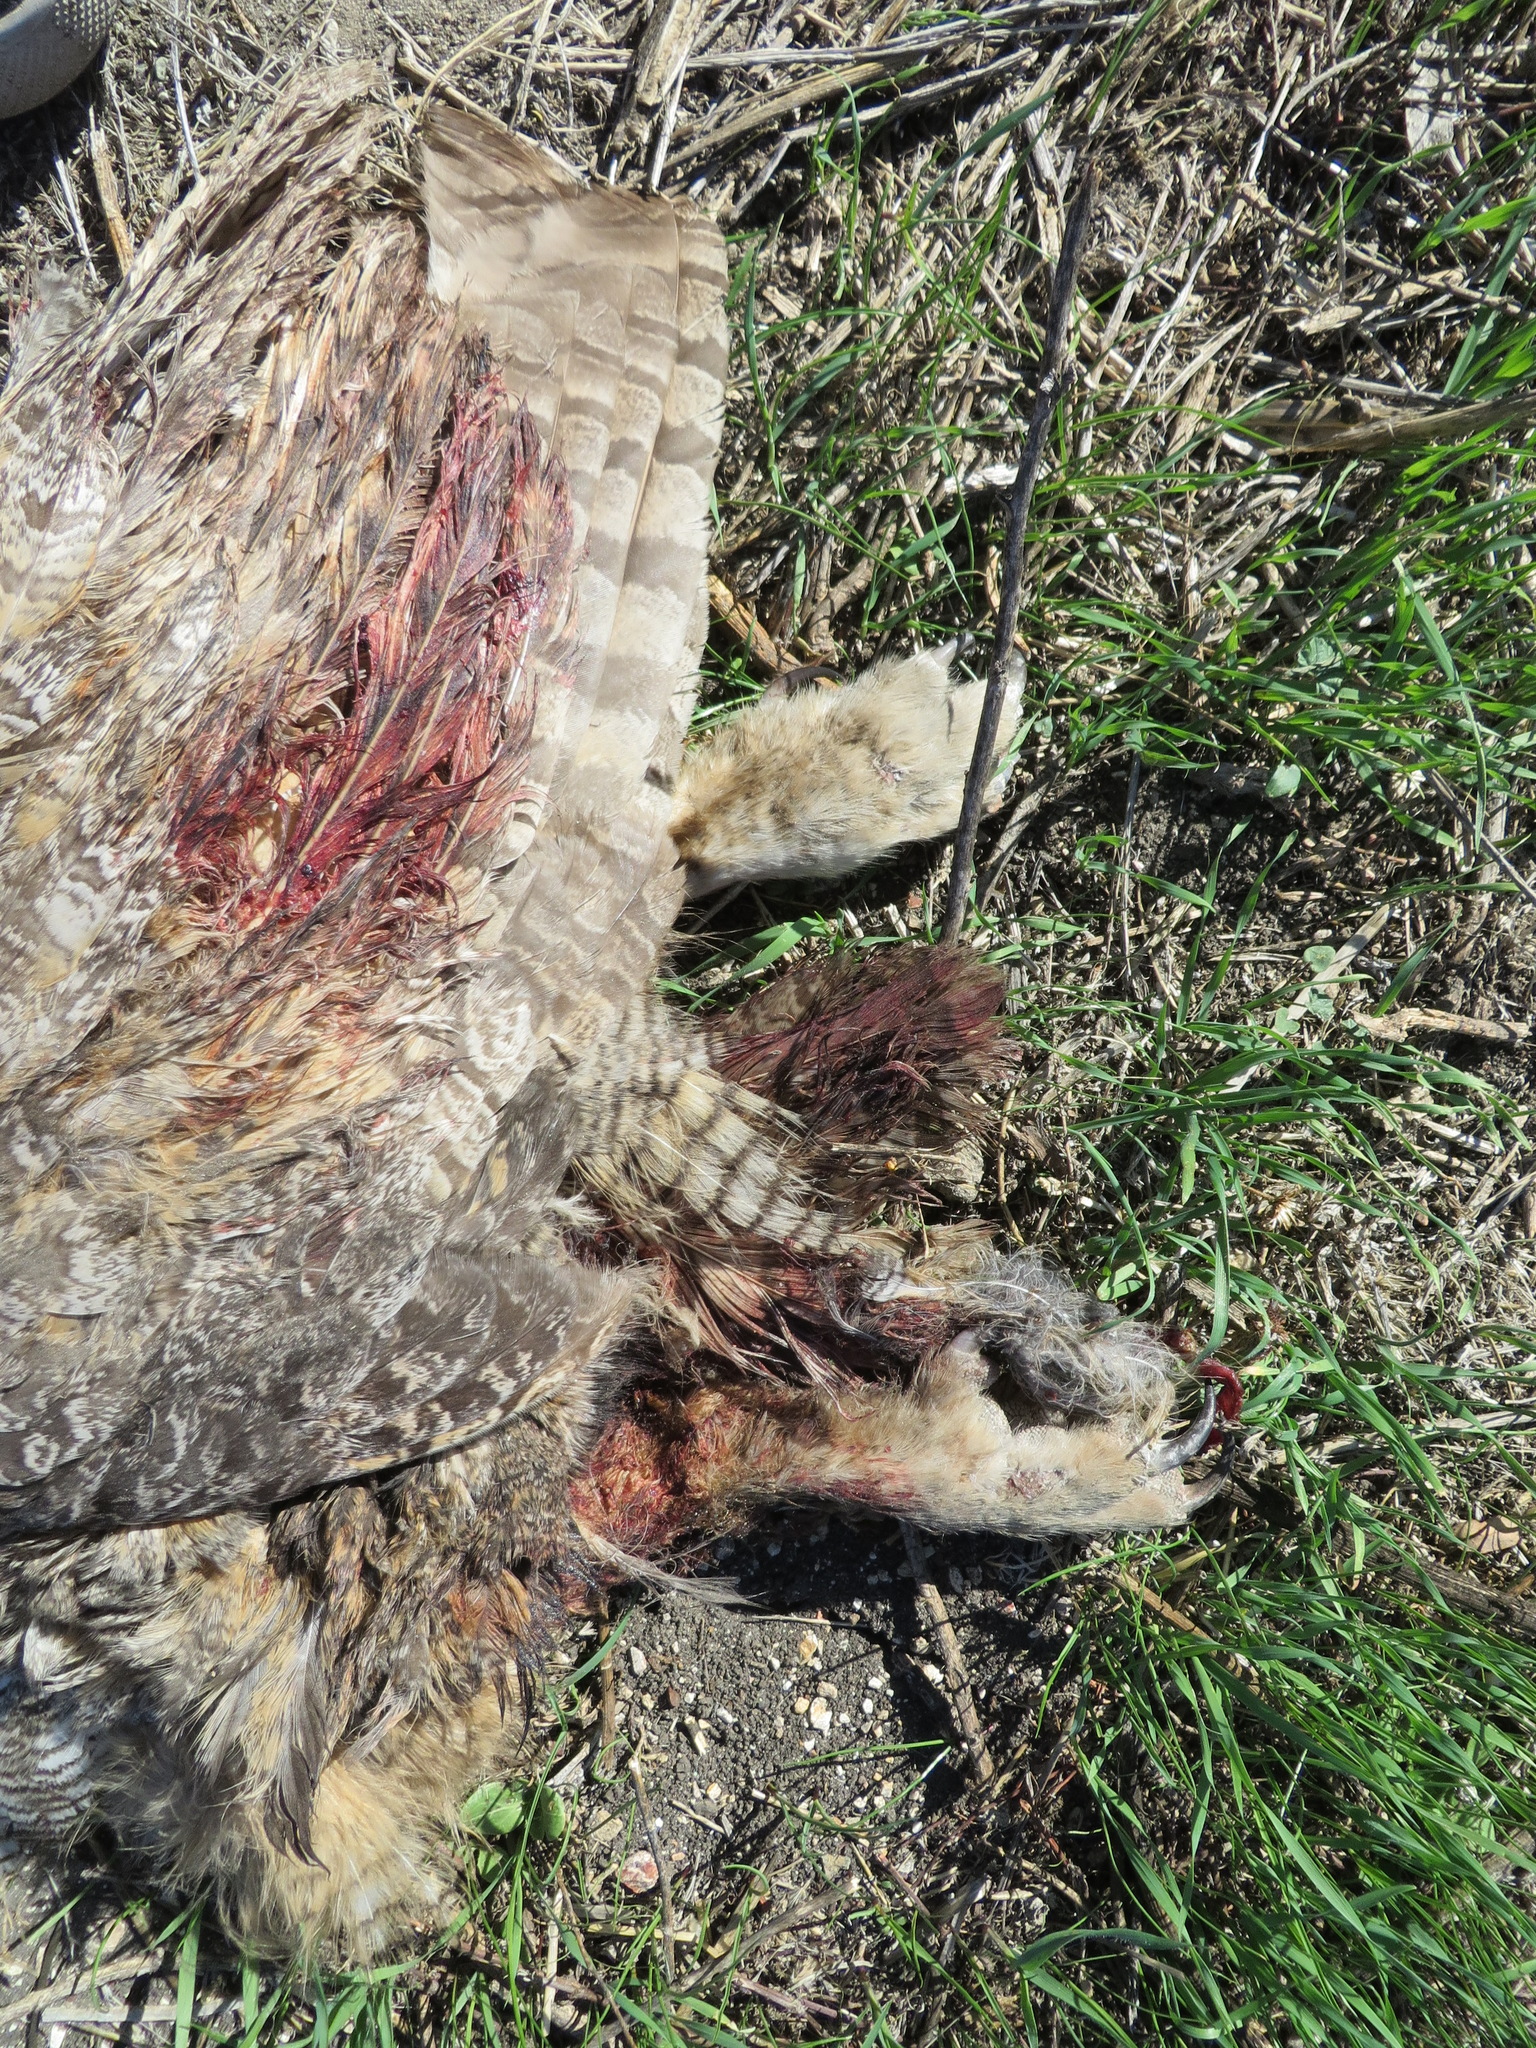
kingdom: Animalia
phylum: Chordata
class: Aves
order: Strigiformes
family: Strigidae
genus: Bubo
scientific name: Bubo virginianus
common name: Great horned owl
